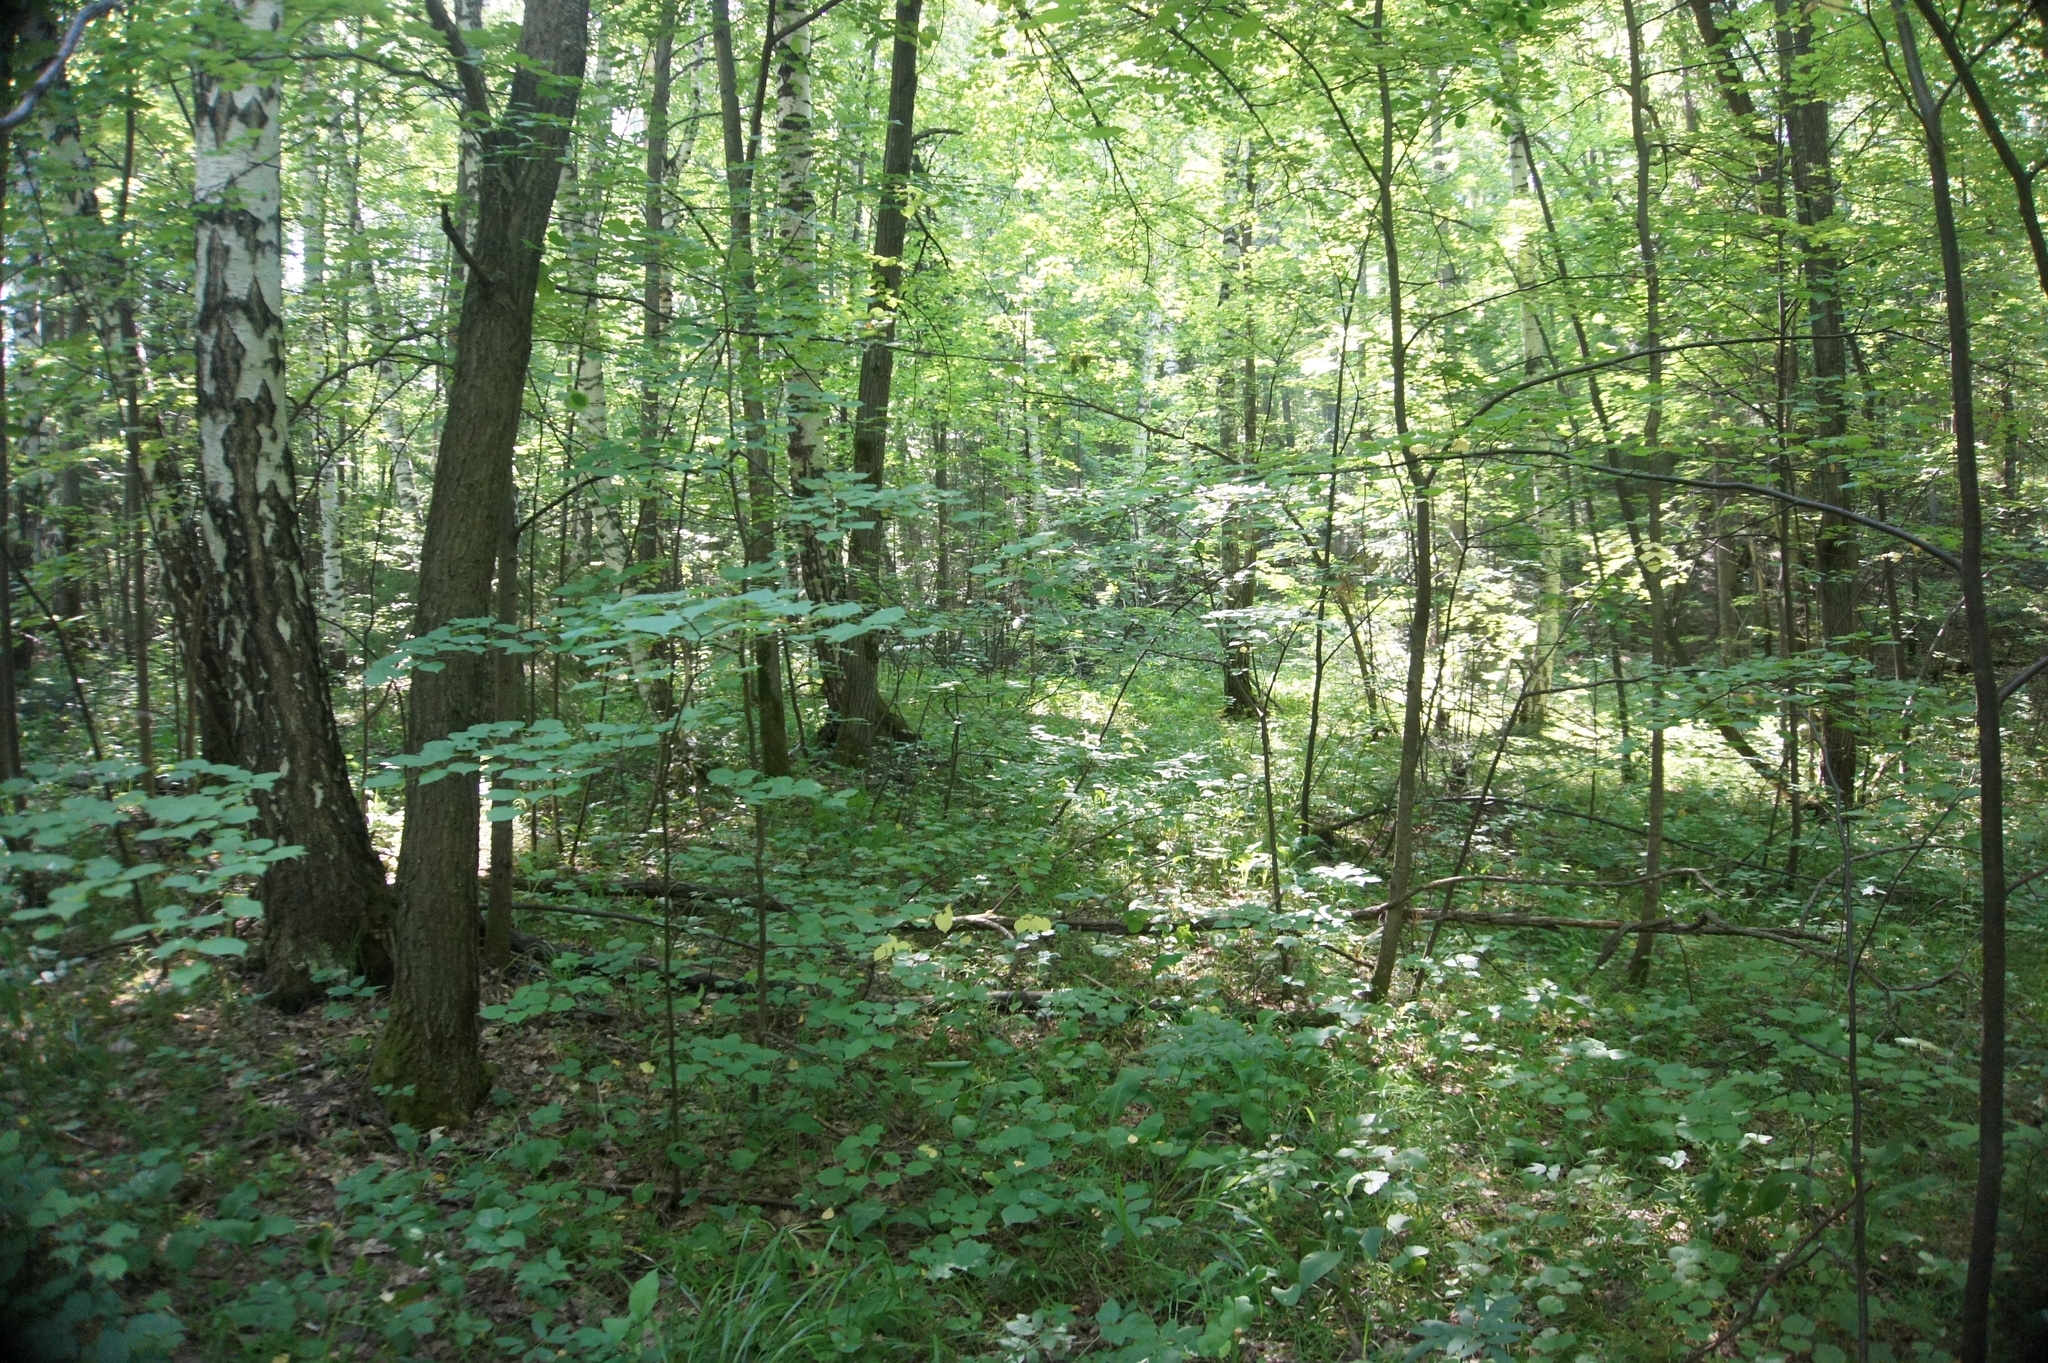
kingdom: Plantae
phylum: Tracheophyta
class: Magnoliopsida
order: Malvales
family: Malvaceae
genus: Tilia
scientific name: Tilia cordata
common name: Small-leaved lime
